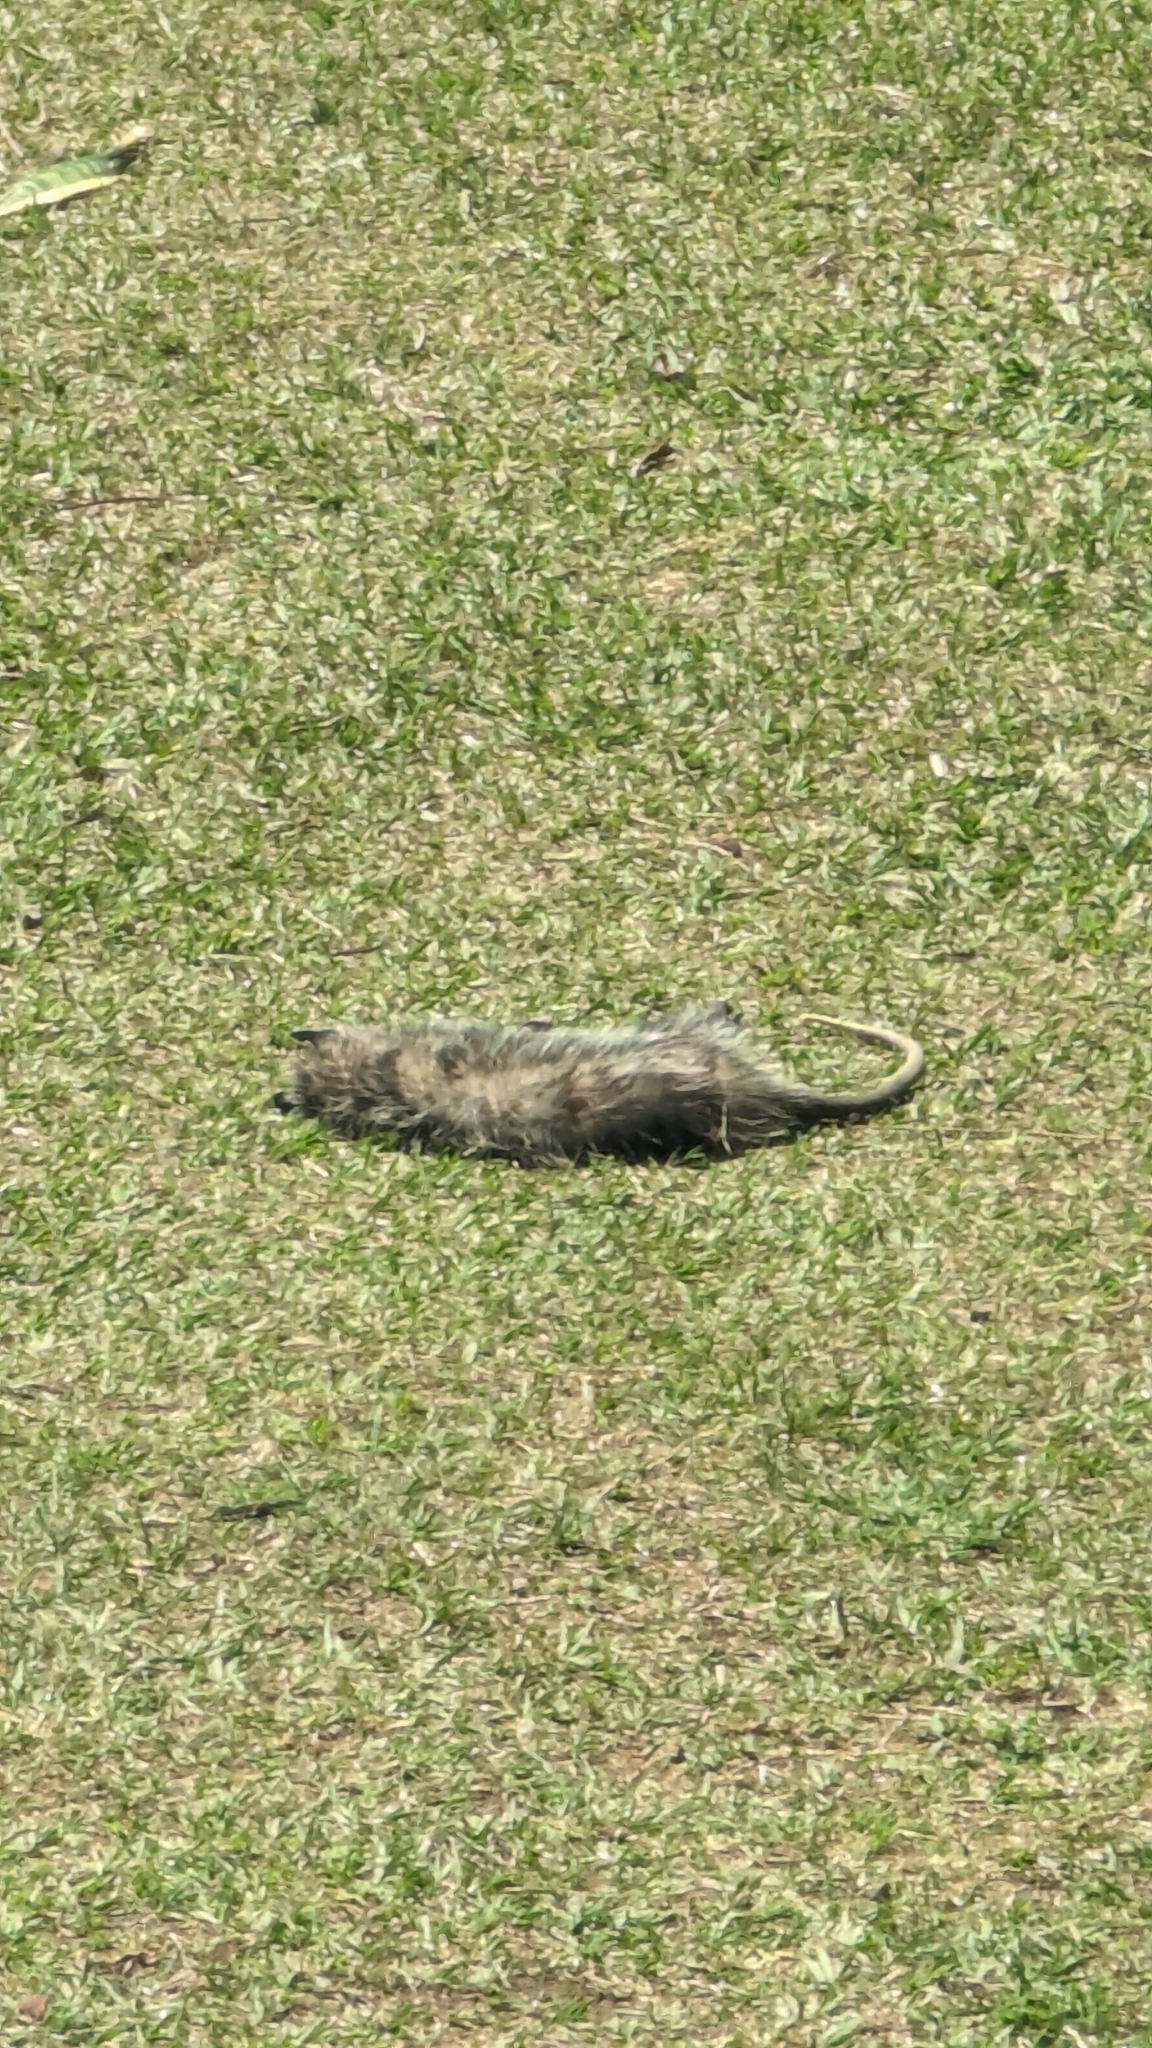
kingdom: Animalia
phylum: Chordata
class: Mammalia
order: Didelphimorphia
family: Didelphidae
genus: Didelphis
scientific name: Didelphis marsupialis
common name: Common opossum
